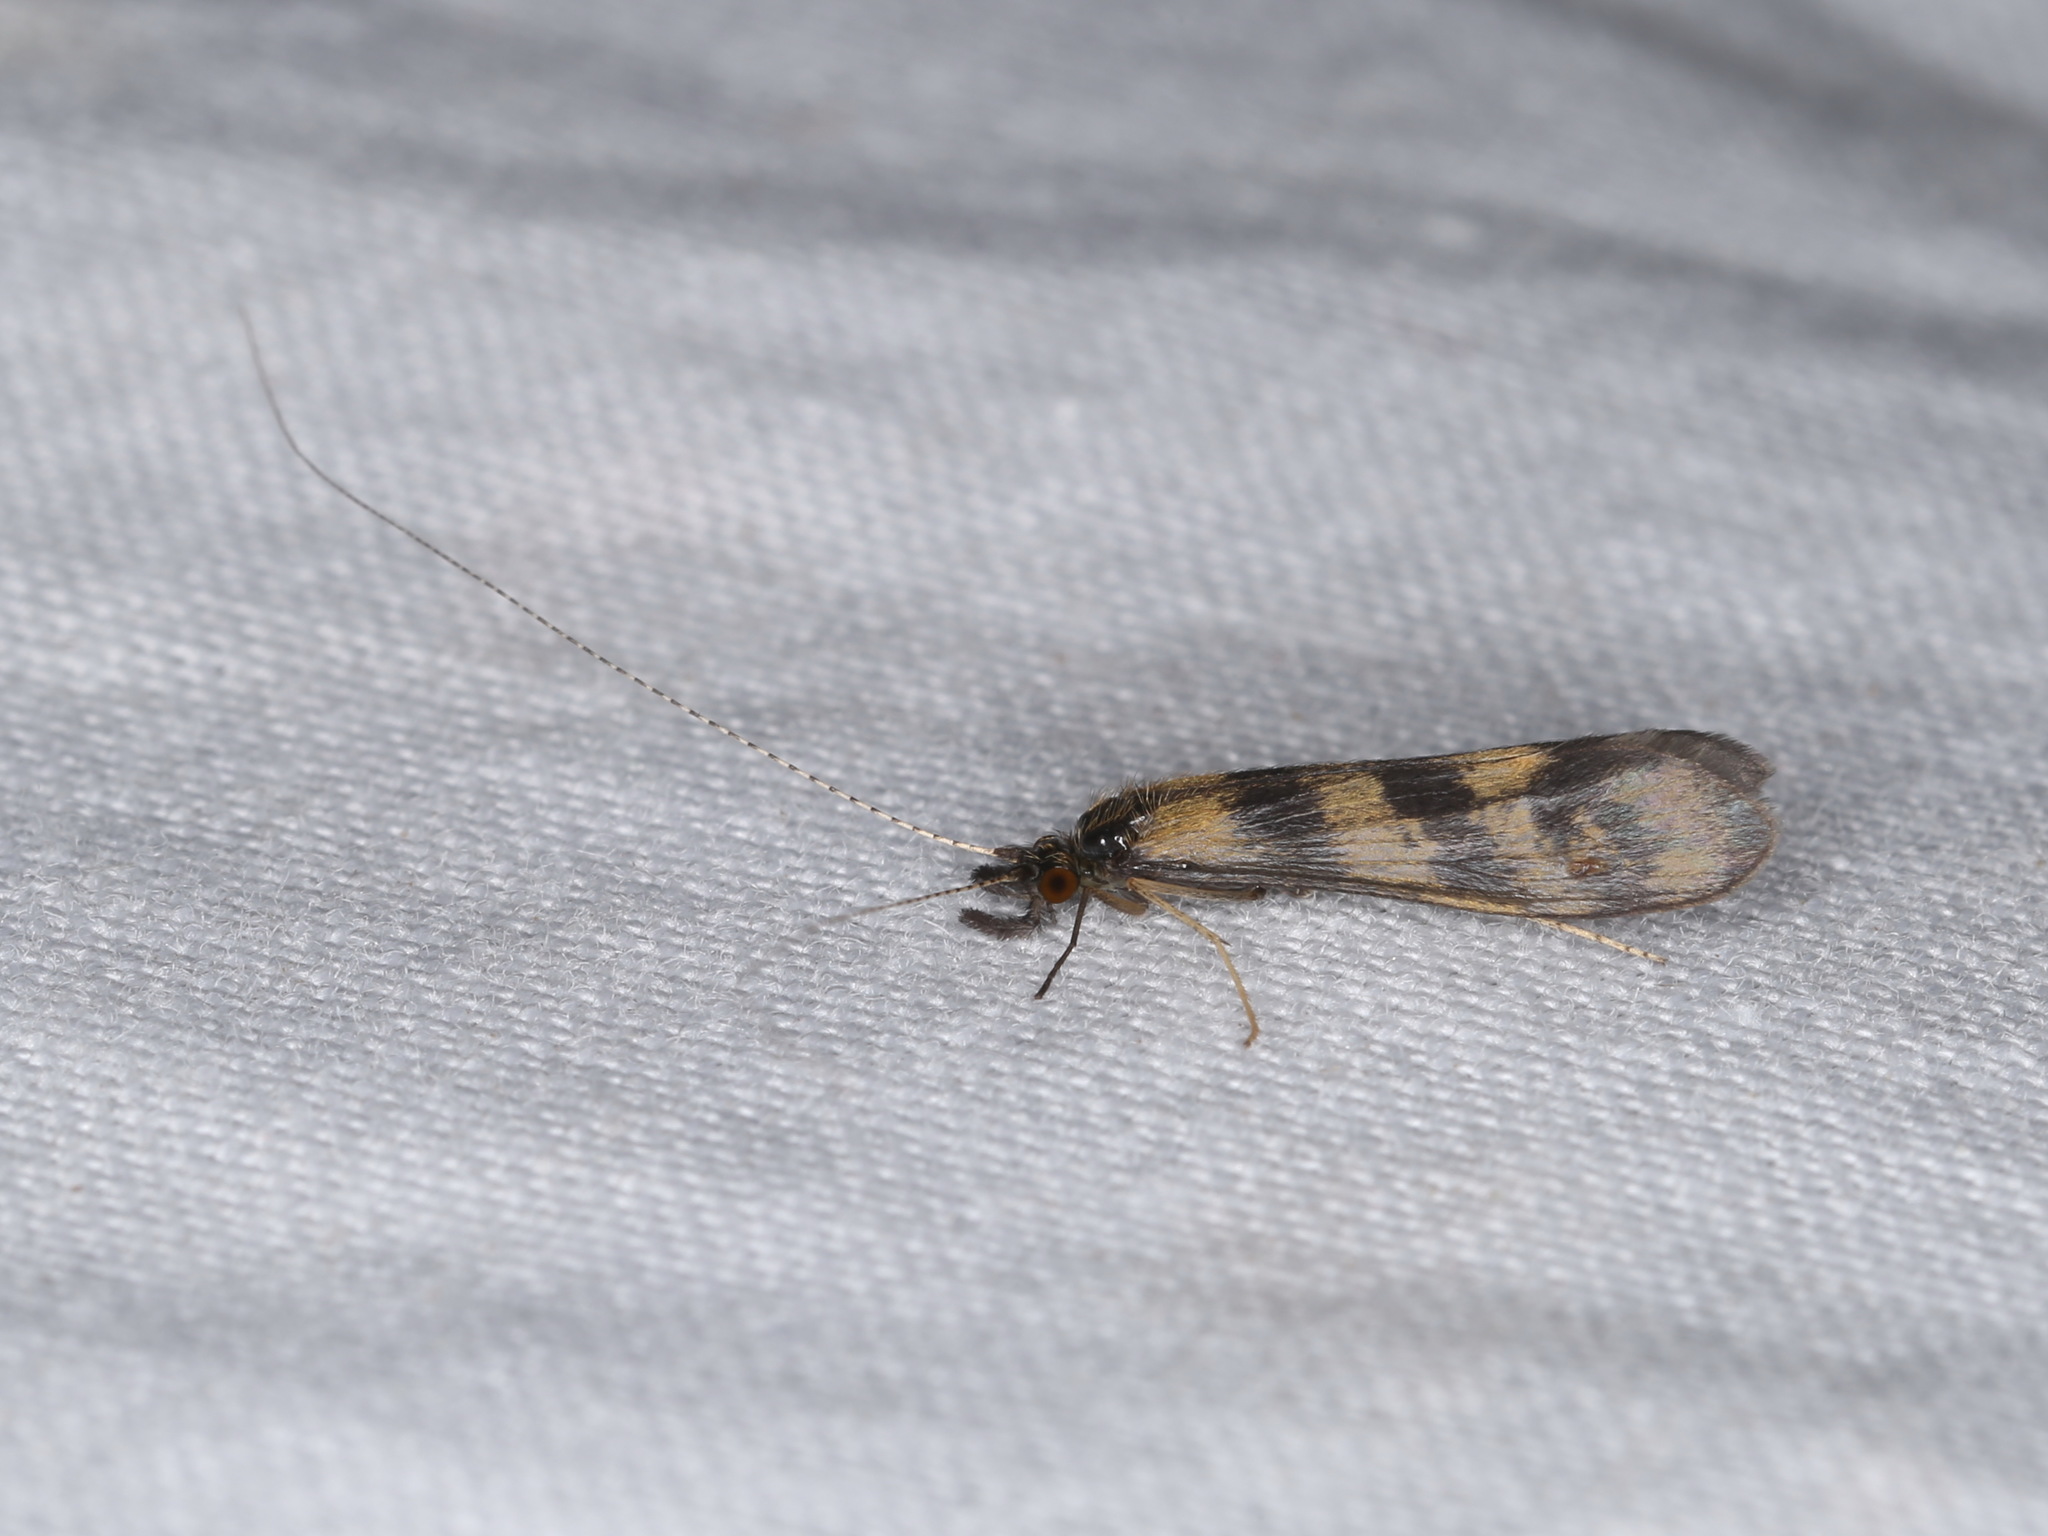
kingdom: Animalia
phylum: Arthropoda
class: Insecta
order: Trichoptera
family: Leptoceridae
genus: Mystacides
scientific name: Mystacides longicornis
